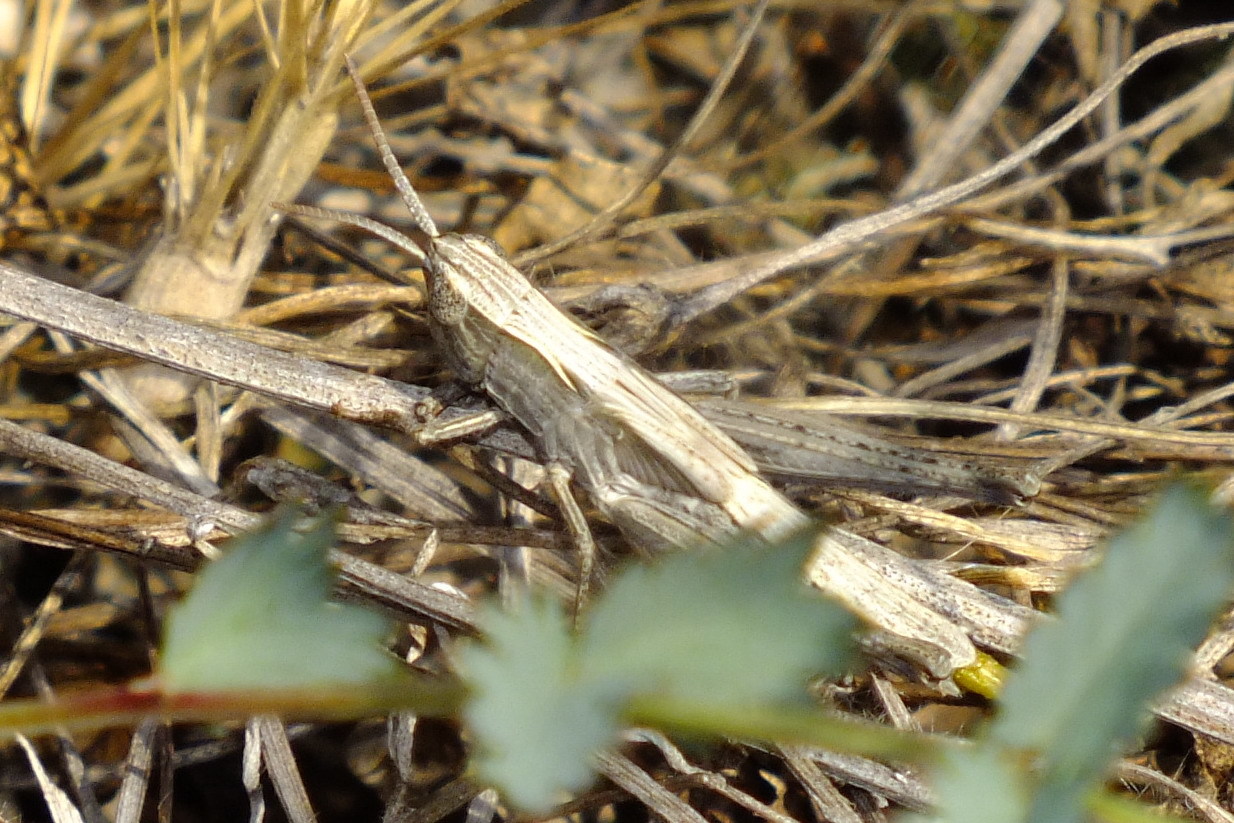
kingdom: Animalia
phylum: Arthropoda
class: Insecta
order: Orthoptera
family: Acrididae
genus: Chorthippus
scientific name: Chorthippus loratus
